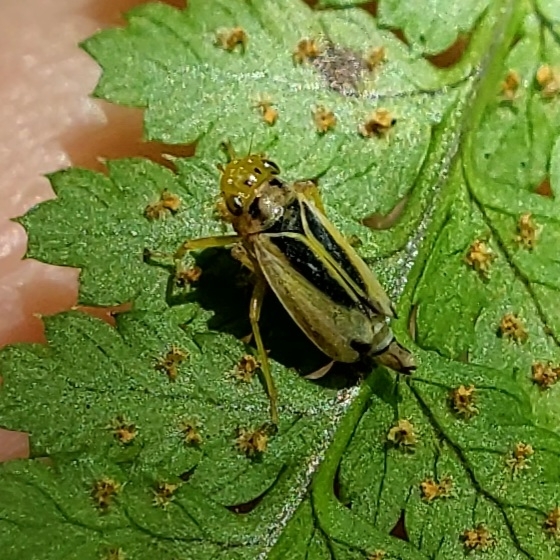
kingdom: Animalia
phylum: Arthropoda
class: Insecta
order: Hemiptera
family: Cicadellidae
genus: Evacanthus
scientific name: Evacanthus bellaustralis
